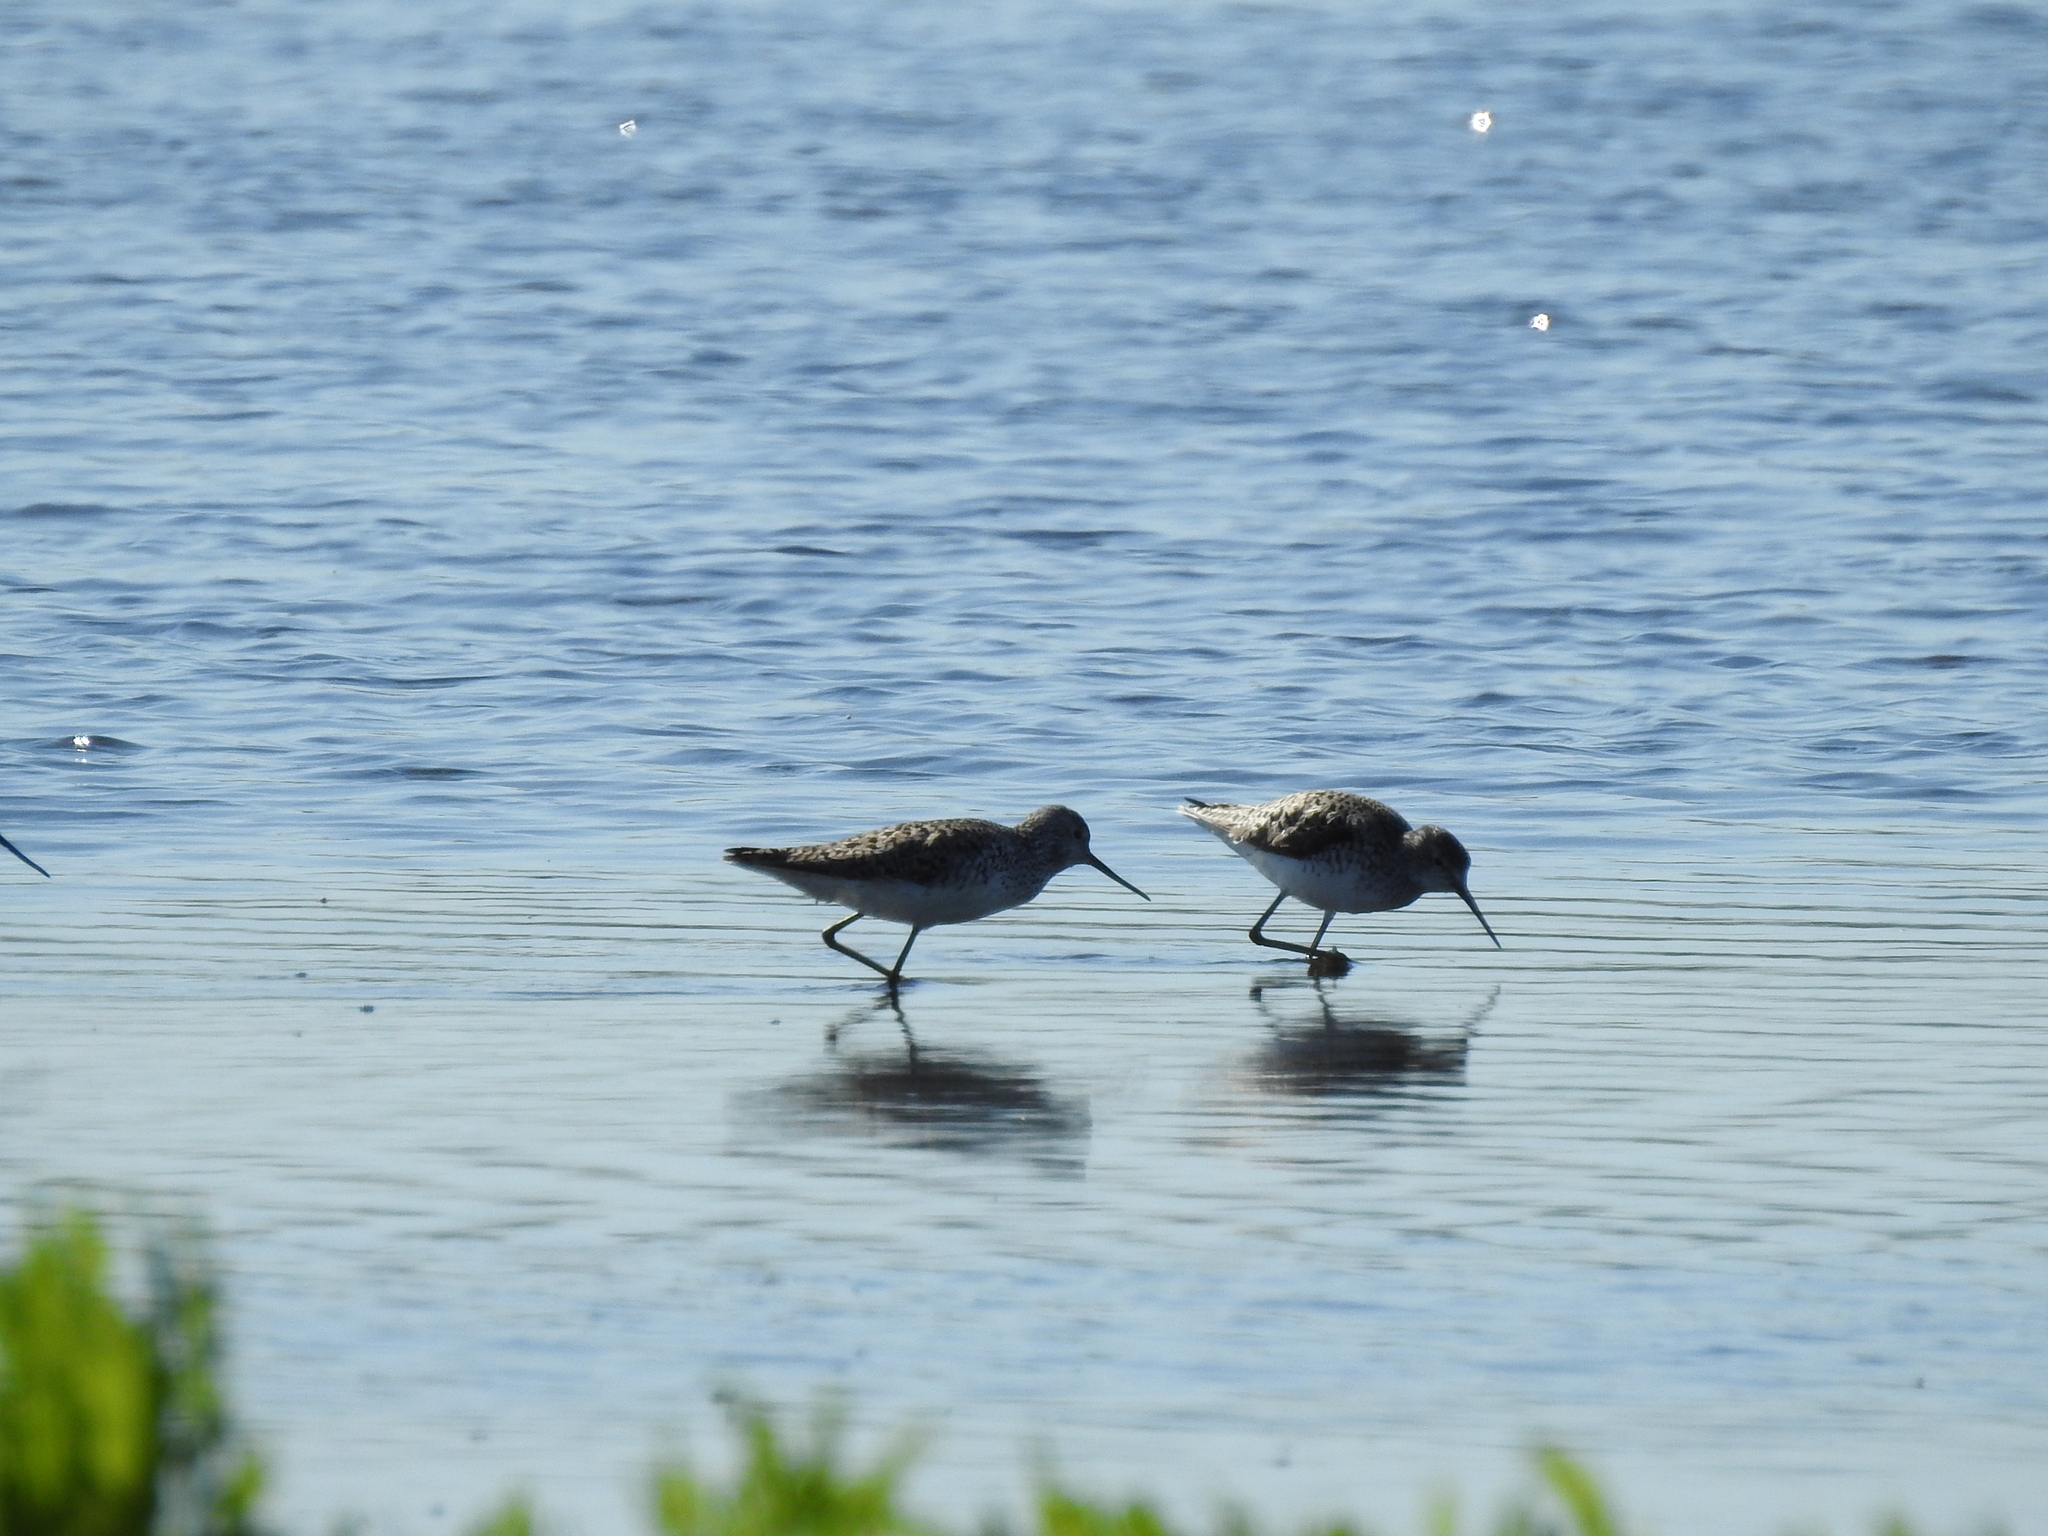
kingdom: Animalia
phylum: Chordata
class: Aves
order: Charadriiformes
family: Scolopacidae
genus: Tringa
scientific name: Tringa stagnatilis
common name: Marsh sandpiper
